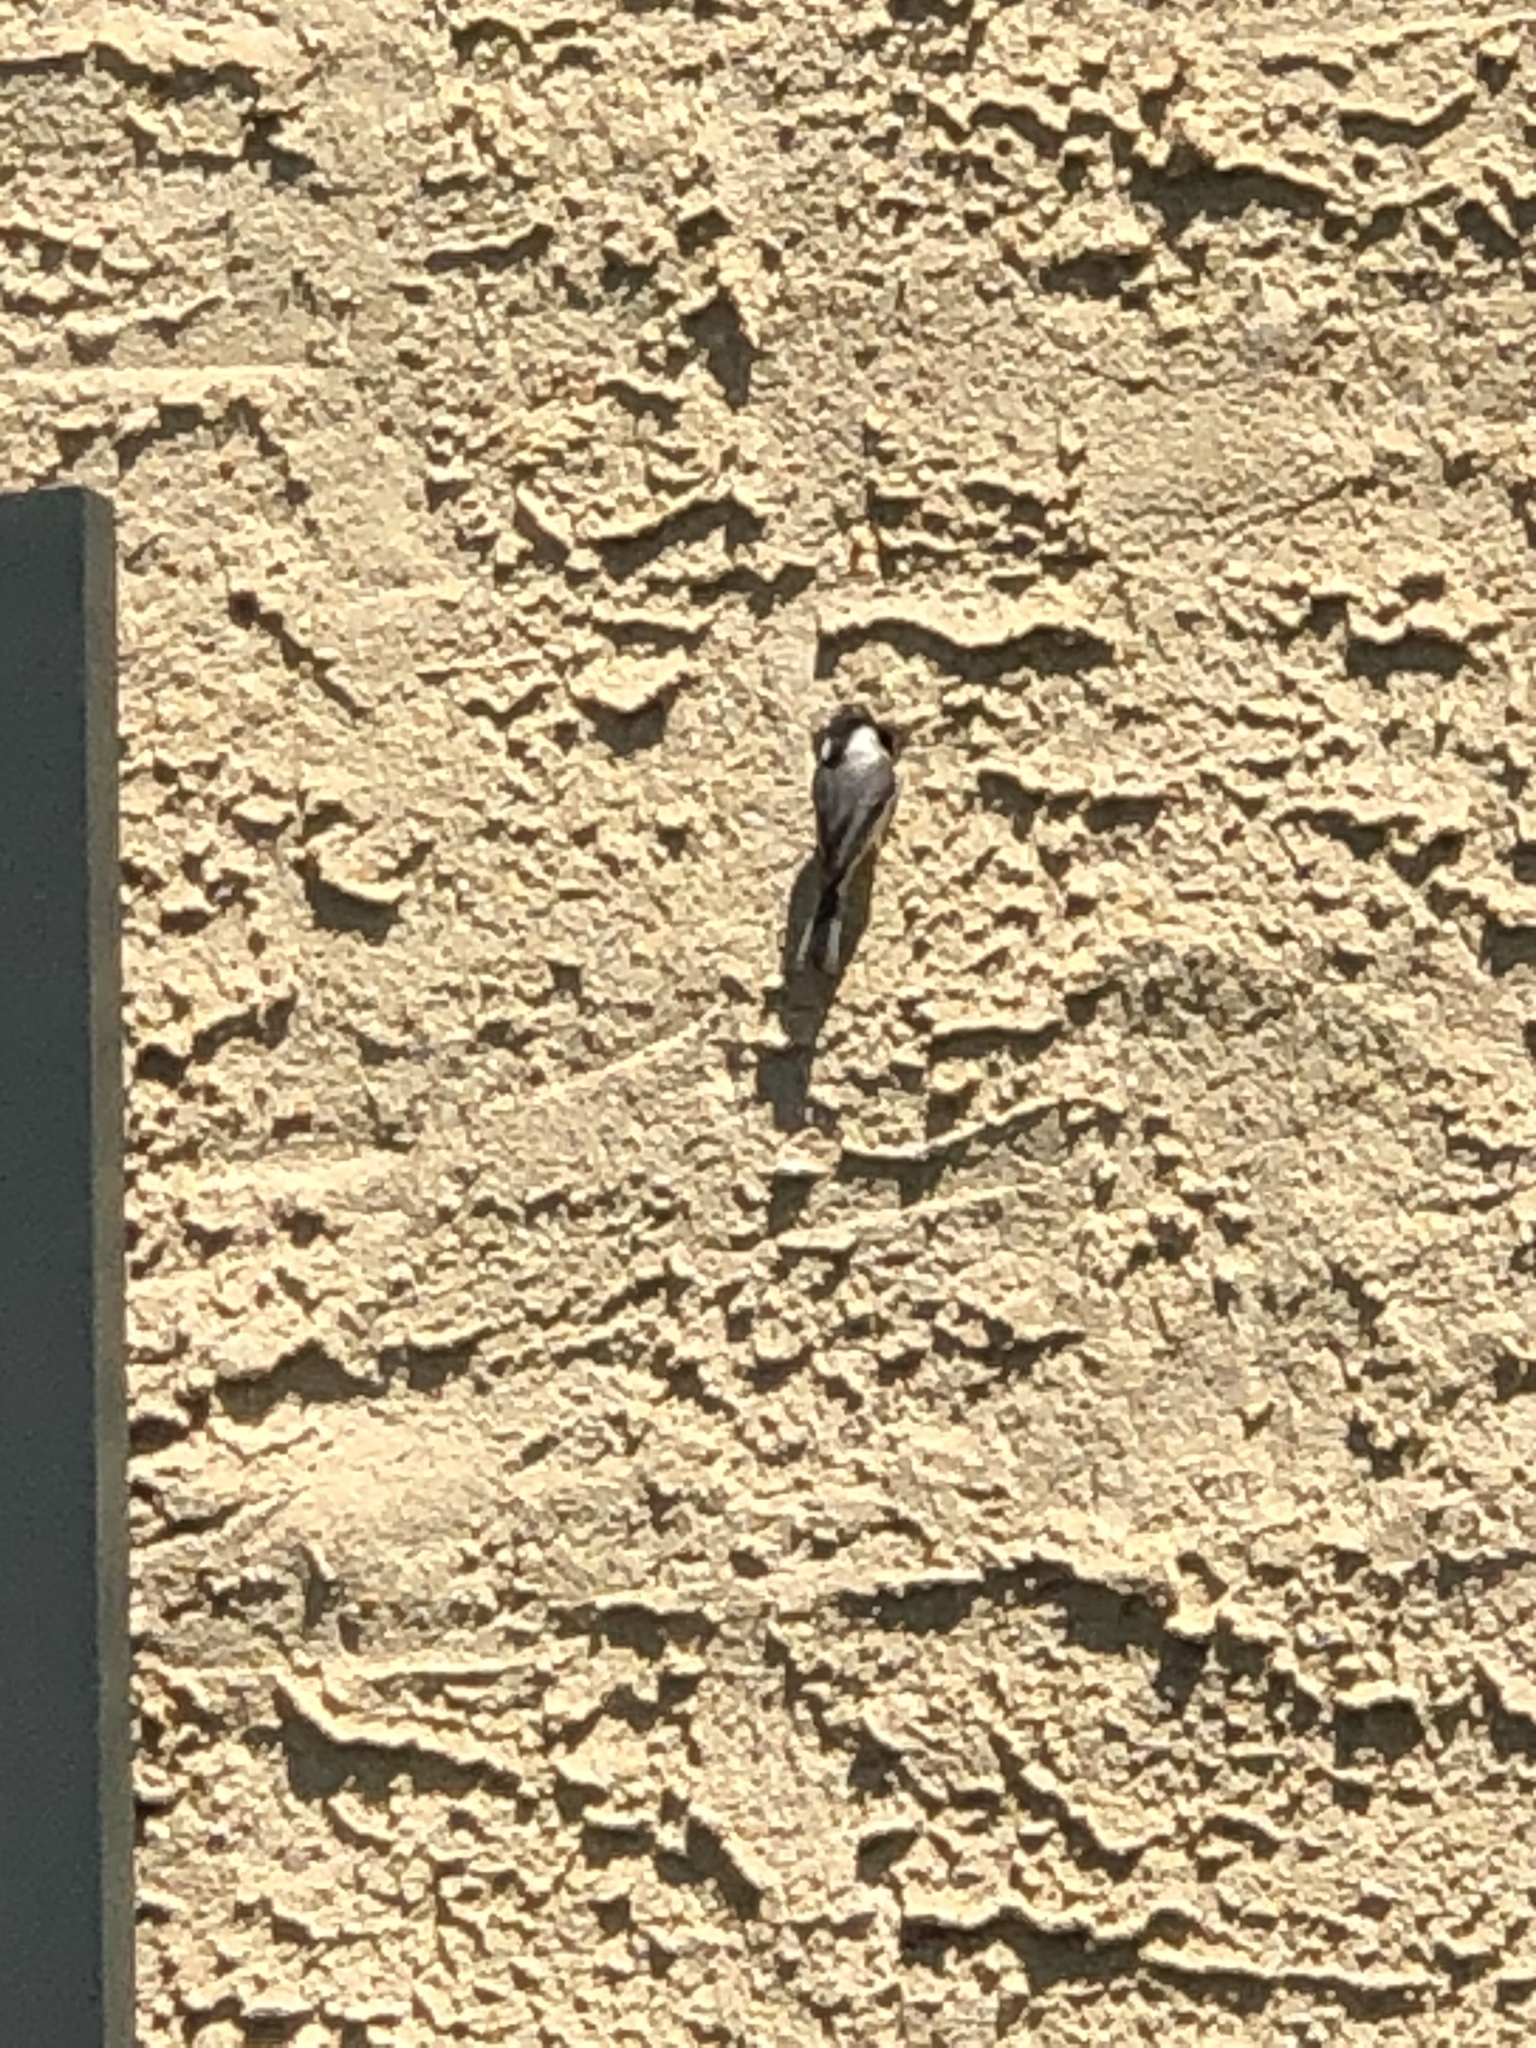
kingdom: Animalia
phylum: Chordata
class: Aves
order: Passeriformes
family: Paridae
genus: Poecile
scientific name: Poecile carolinensis
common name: Carolina chickadee
